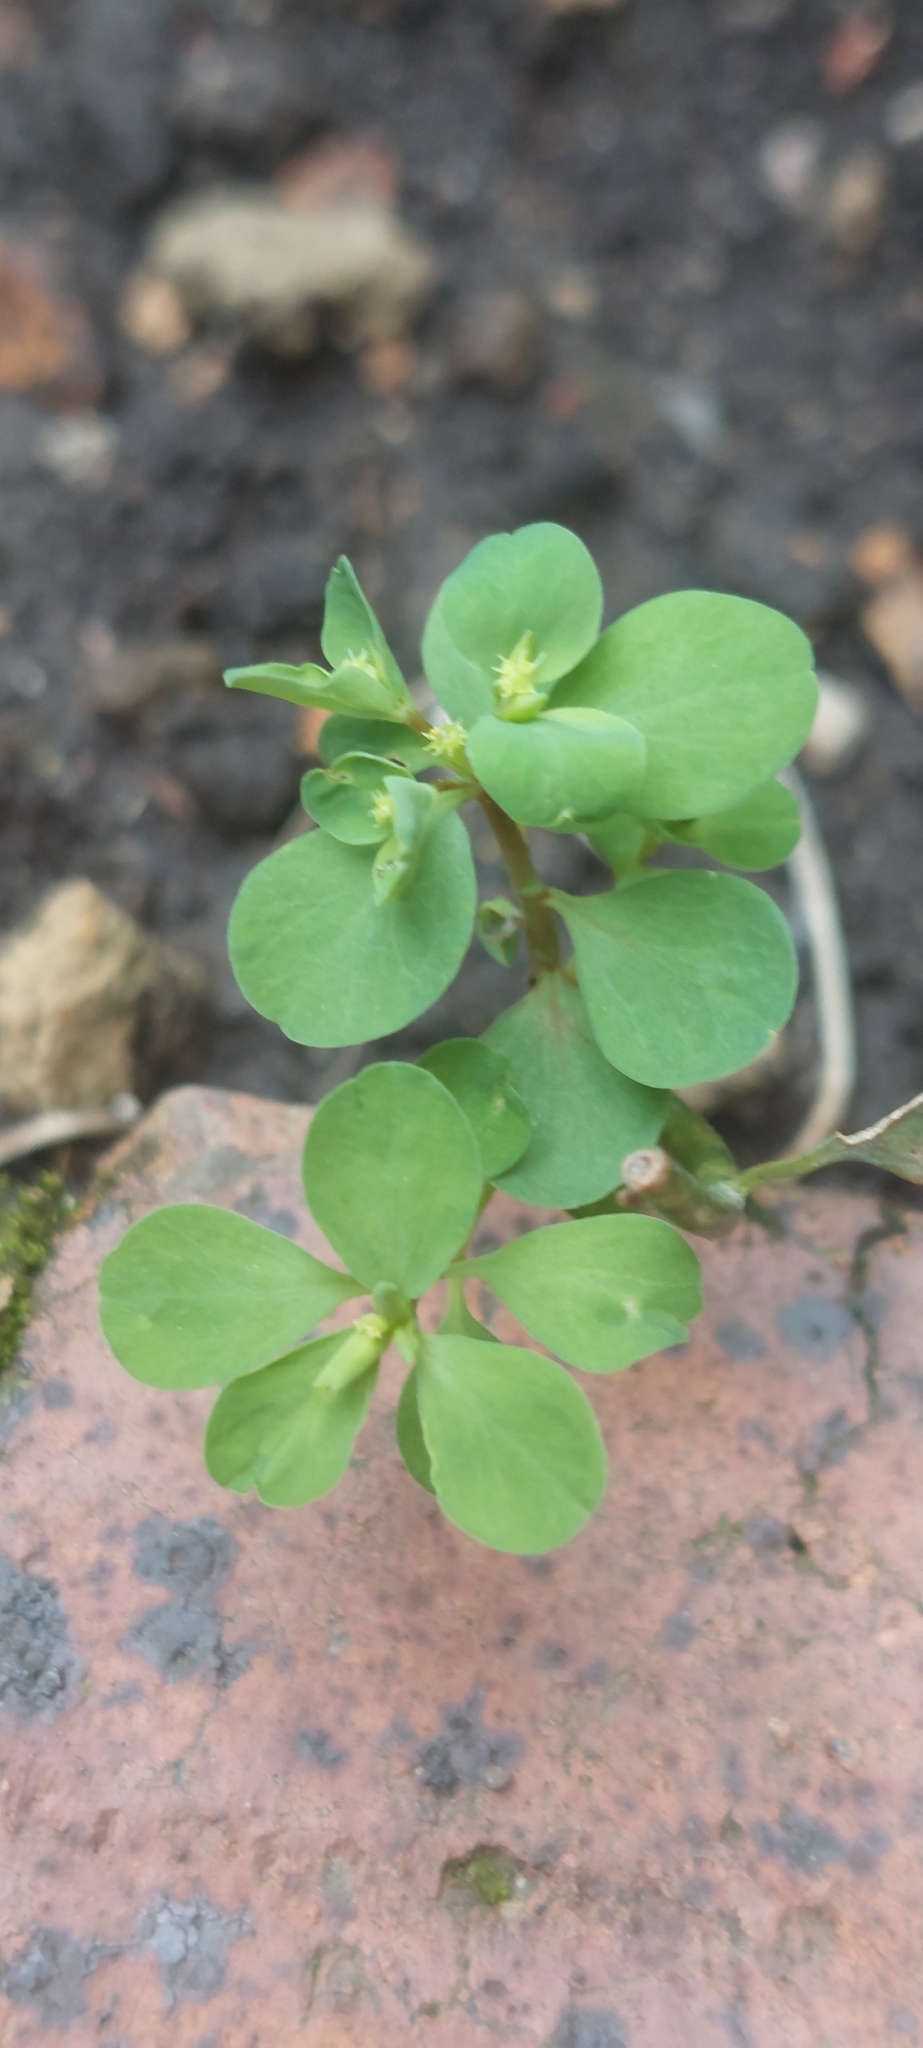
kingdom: Plantae
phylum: Tracheophyta
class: Magnoliopsida
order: Malpighiales
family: Euphorbiaceae
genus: Euphorbia
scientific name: Euphorbia peplus
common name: Petty spurge
